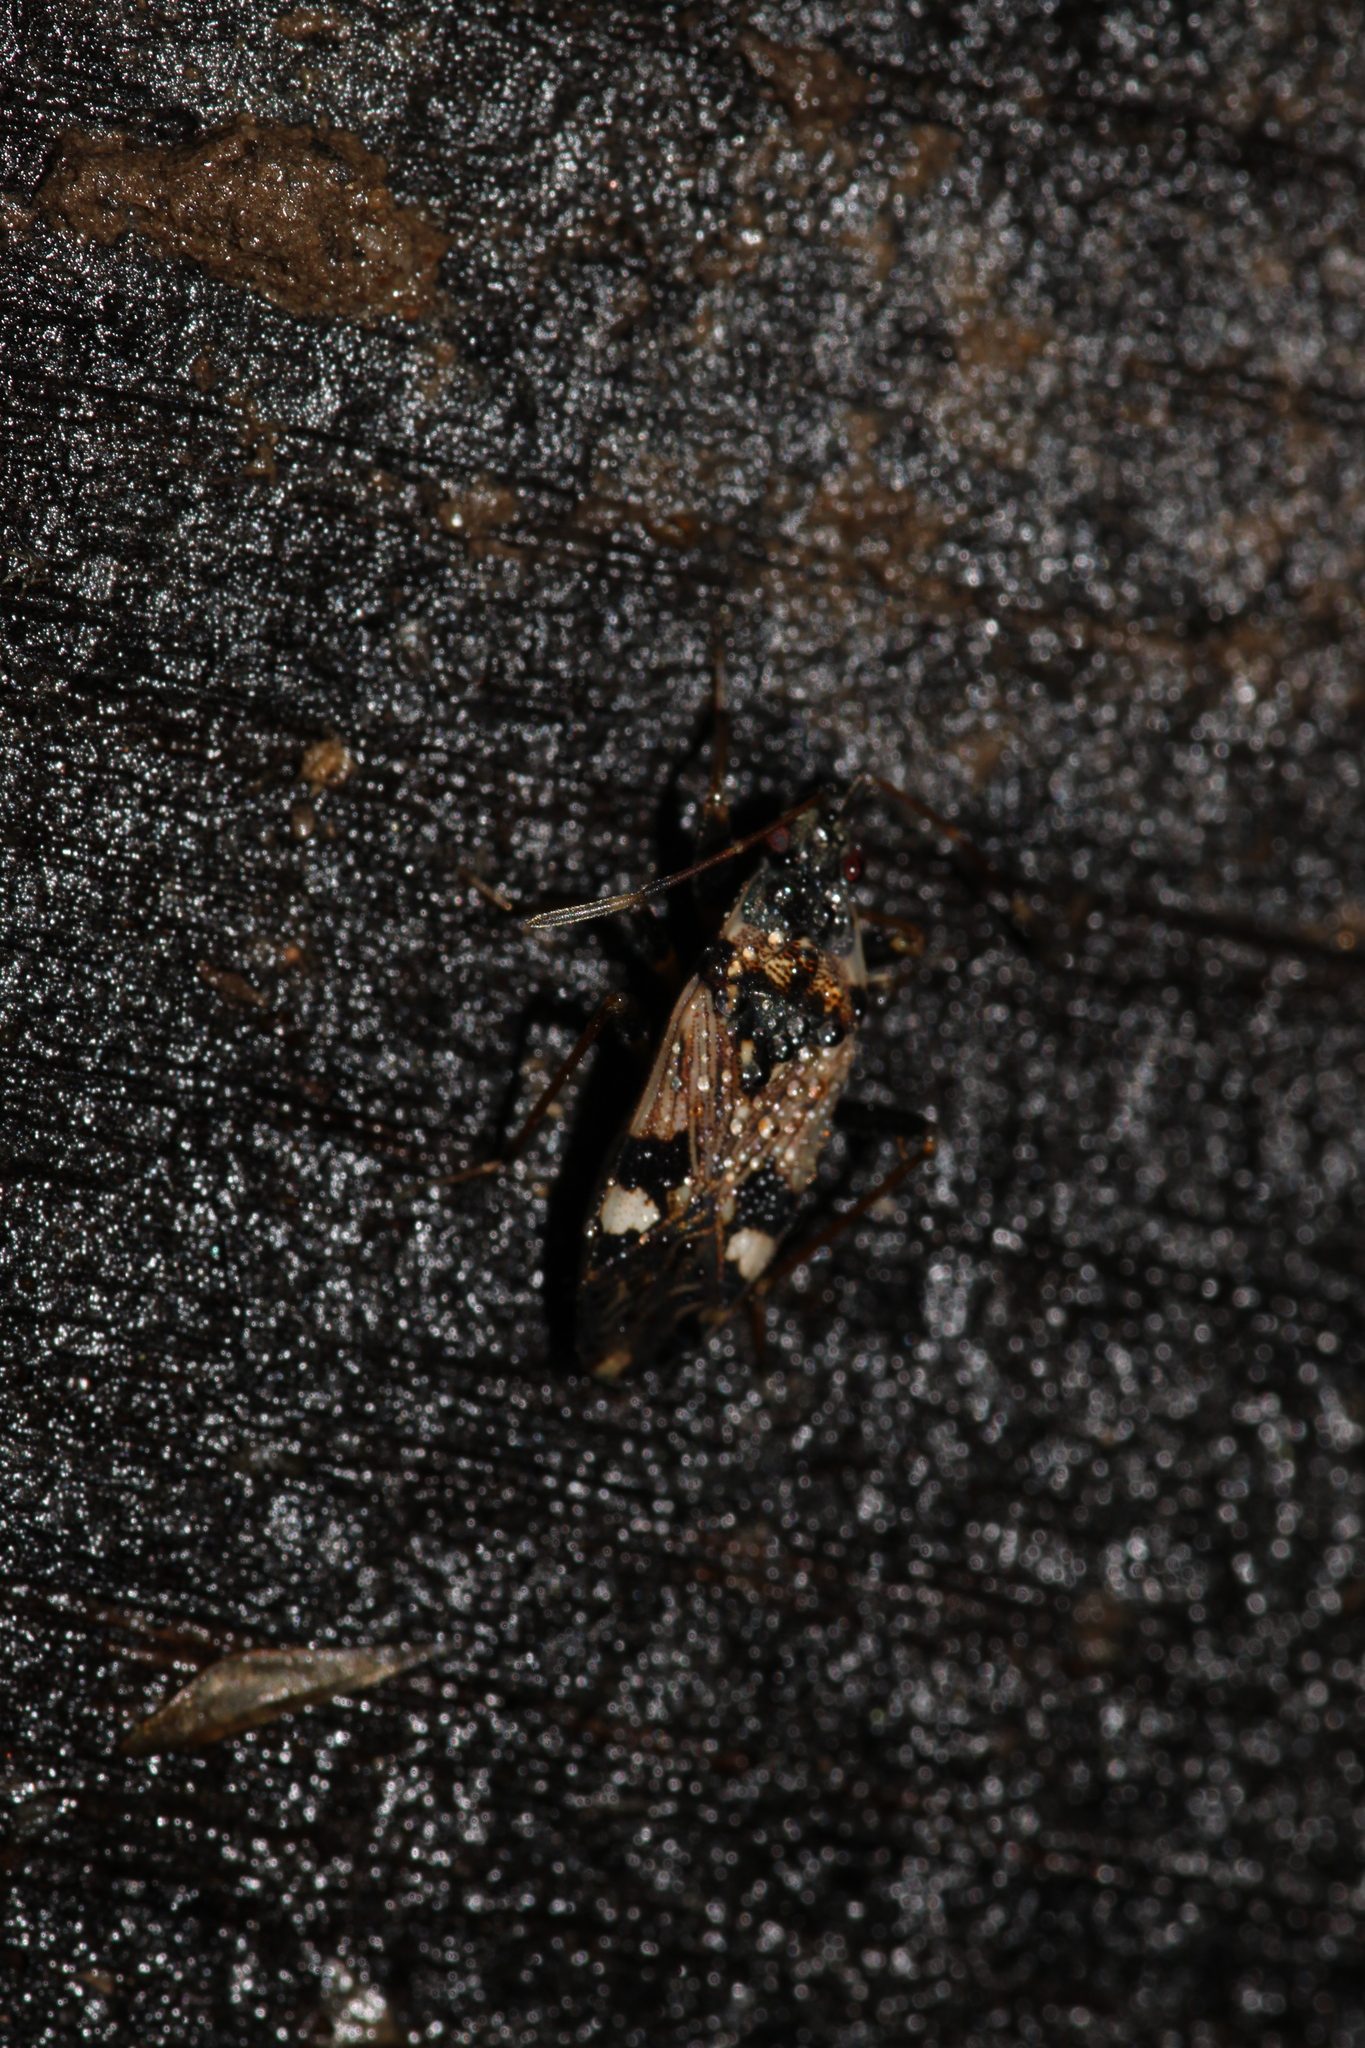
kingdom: Animalia
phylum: Arthropoda
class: Insecta
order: Hemiptera
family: Rhyparochromidae
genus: Beosus
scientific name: Beosus maritimus
